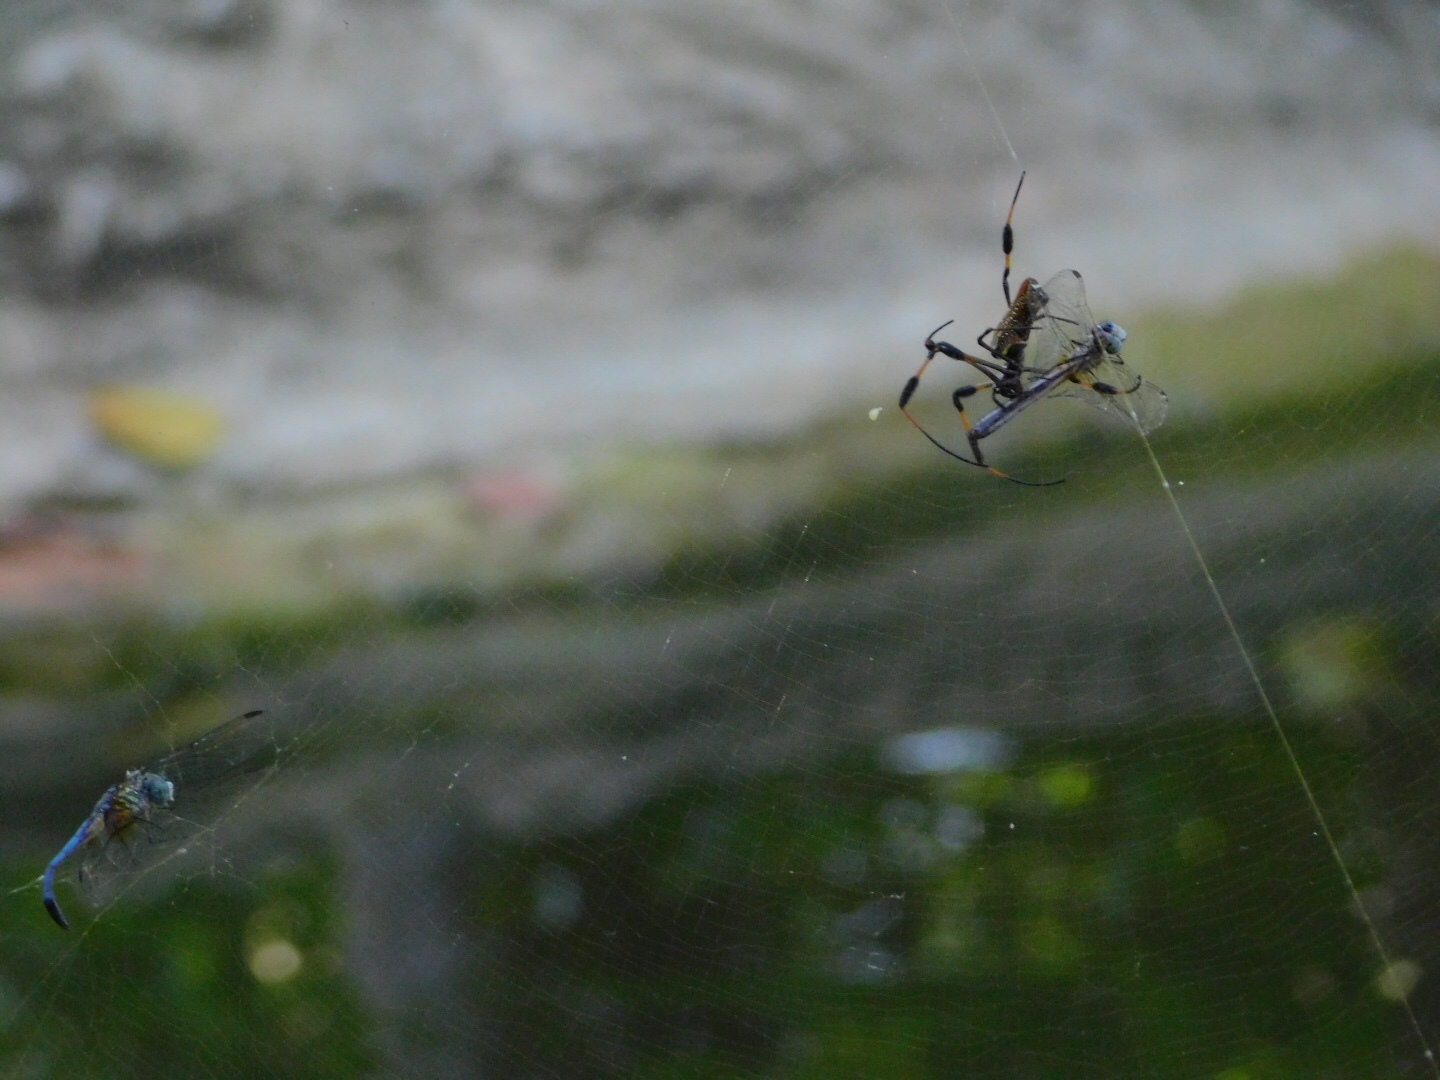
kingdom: Animalia
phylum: Arthropoda
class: Arachnida
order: Araneae
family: Araneidae
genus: Trichonephila
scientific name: Trichonephila clavipes
